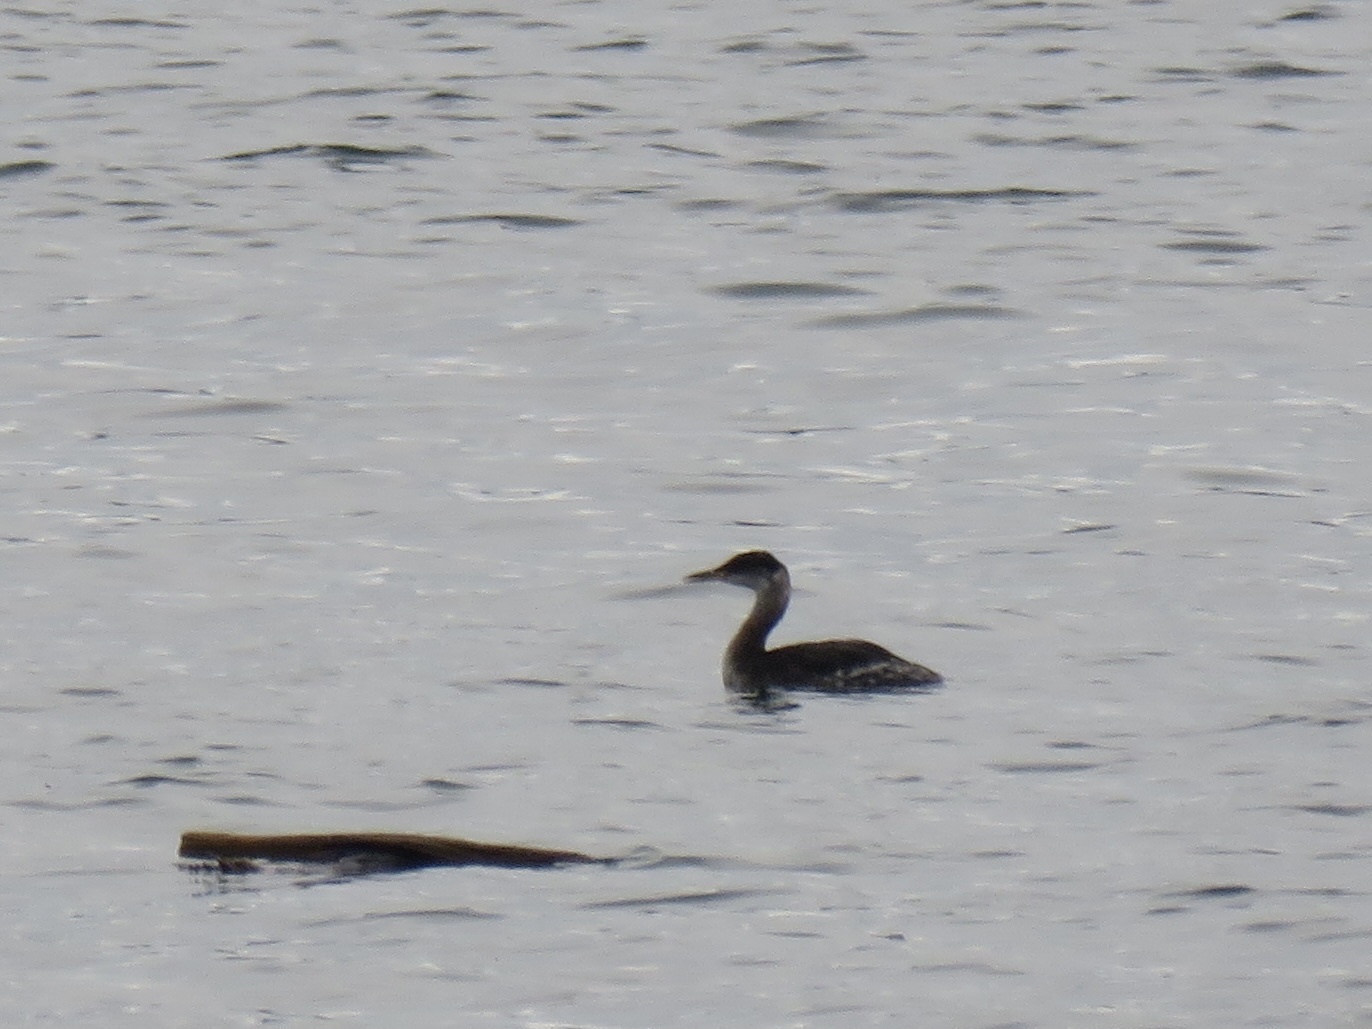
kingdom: Animalia
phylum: Chordata
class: Aves
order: Podicipediformes
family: Podicipedidae
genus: Podiceps
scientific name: Podiceps grisegena
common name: Red-necked grebe
